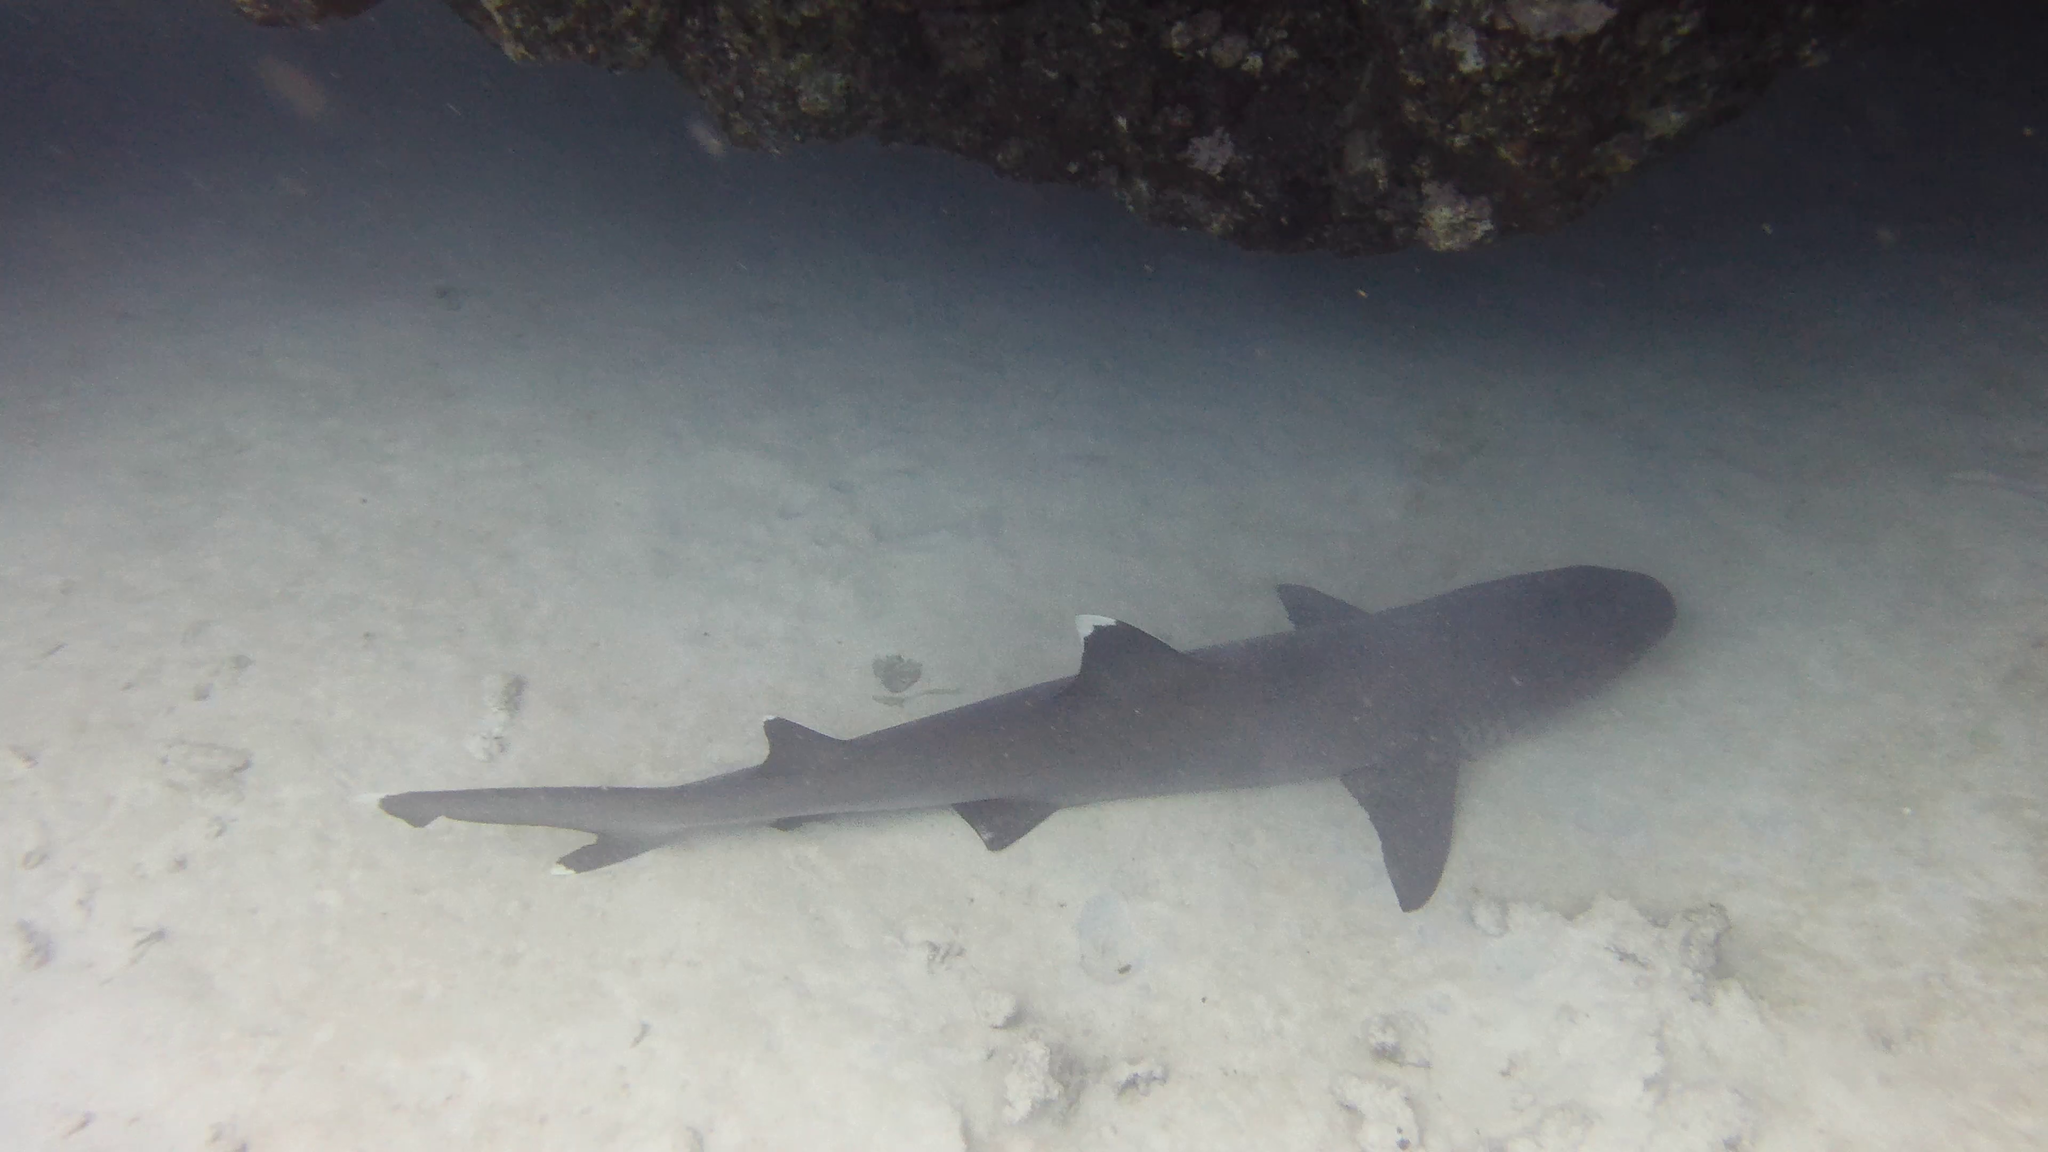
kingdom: Animalia
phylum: Chordata
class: Elasmobranchii
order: Carcharhiniformes
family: Carcharhinidae
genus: Triaenodon
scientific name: Triaenodon obesus
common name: Whitetip reef shark
